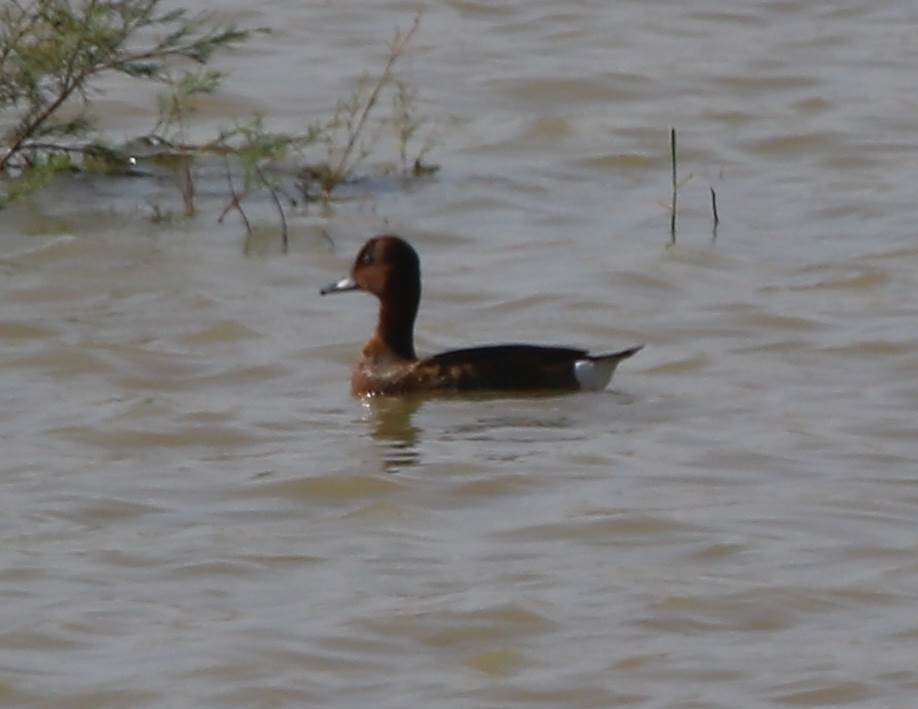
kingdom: Animalia
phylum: Chordata
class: Aves
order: Anseriformes
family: Anatidae
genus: Aythya
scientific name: Aythya nyroca
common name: Ferruginous duck
